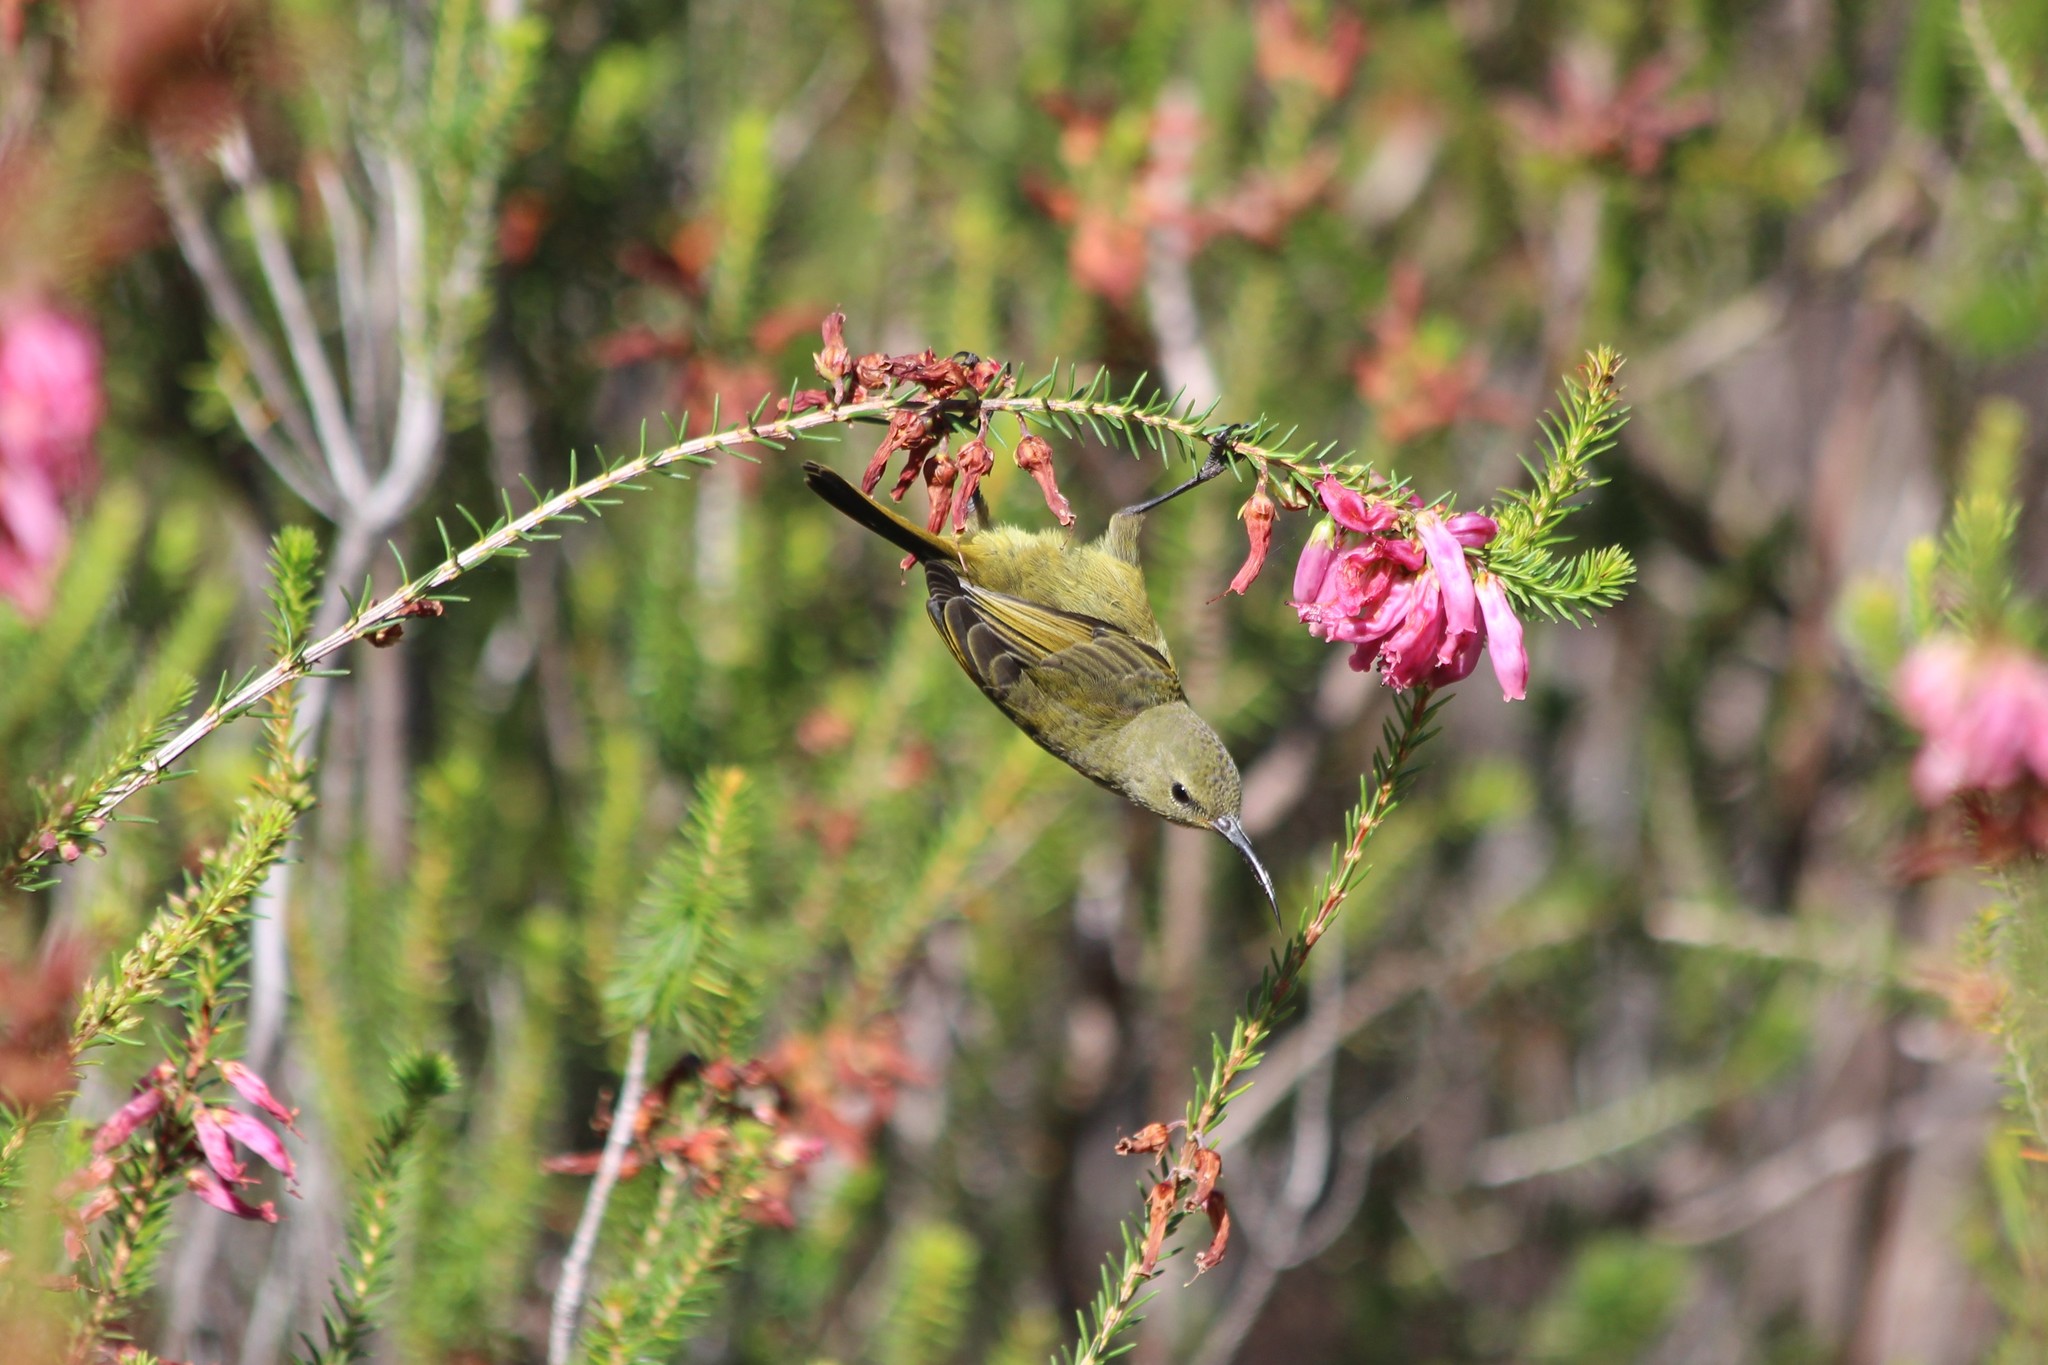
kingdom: Animalia
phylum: Chordata
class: Aves
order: Passeriformes
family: Nectariniidae
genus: Anthobaphes
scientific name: Anthobaphes violacea
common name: Orange-breasted sunbird
